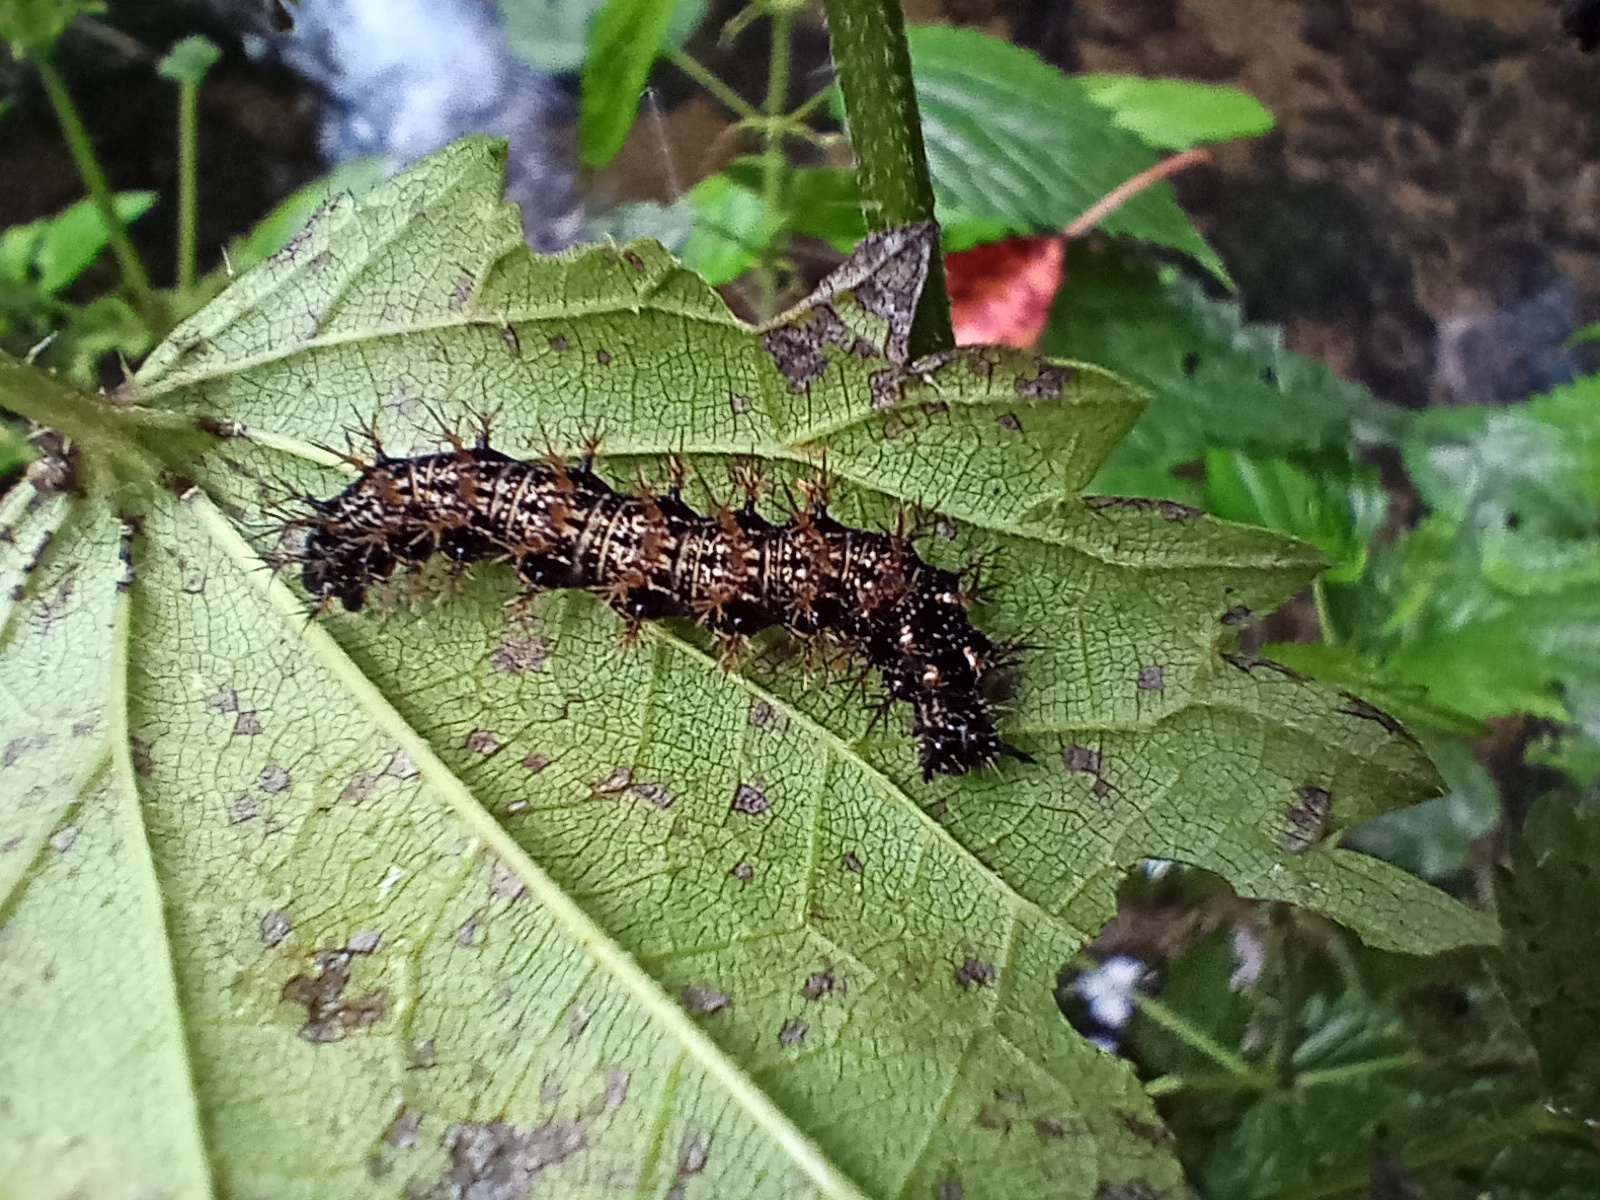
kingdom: Animalia
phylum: Arthropoda
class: Insecta
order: Lepidoptera
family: Nymphalidae
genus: Araschnia
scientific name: Araschnia levana
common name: Map butterfly
